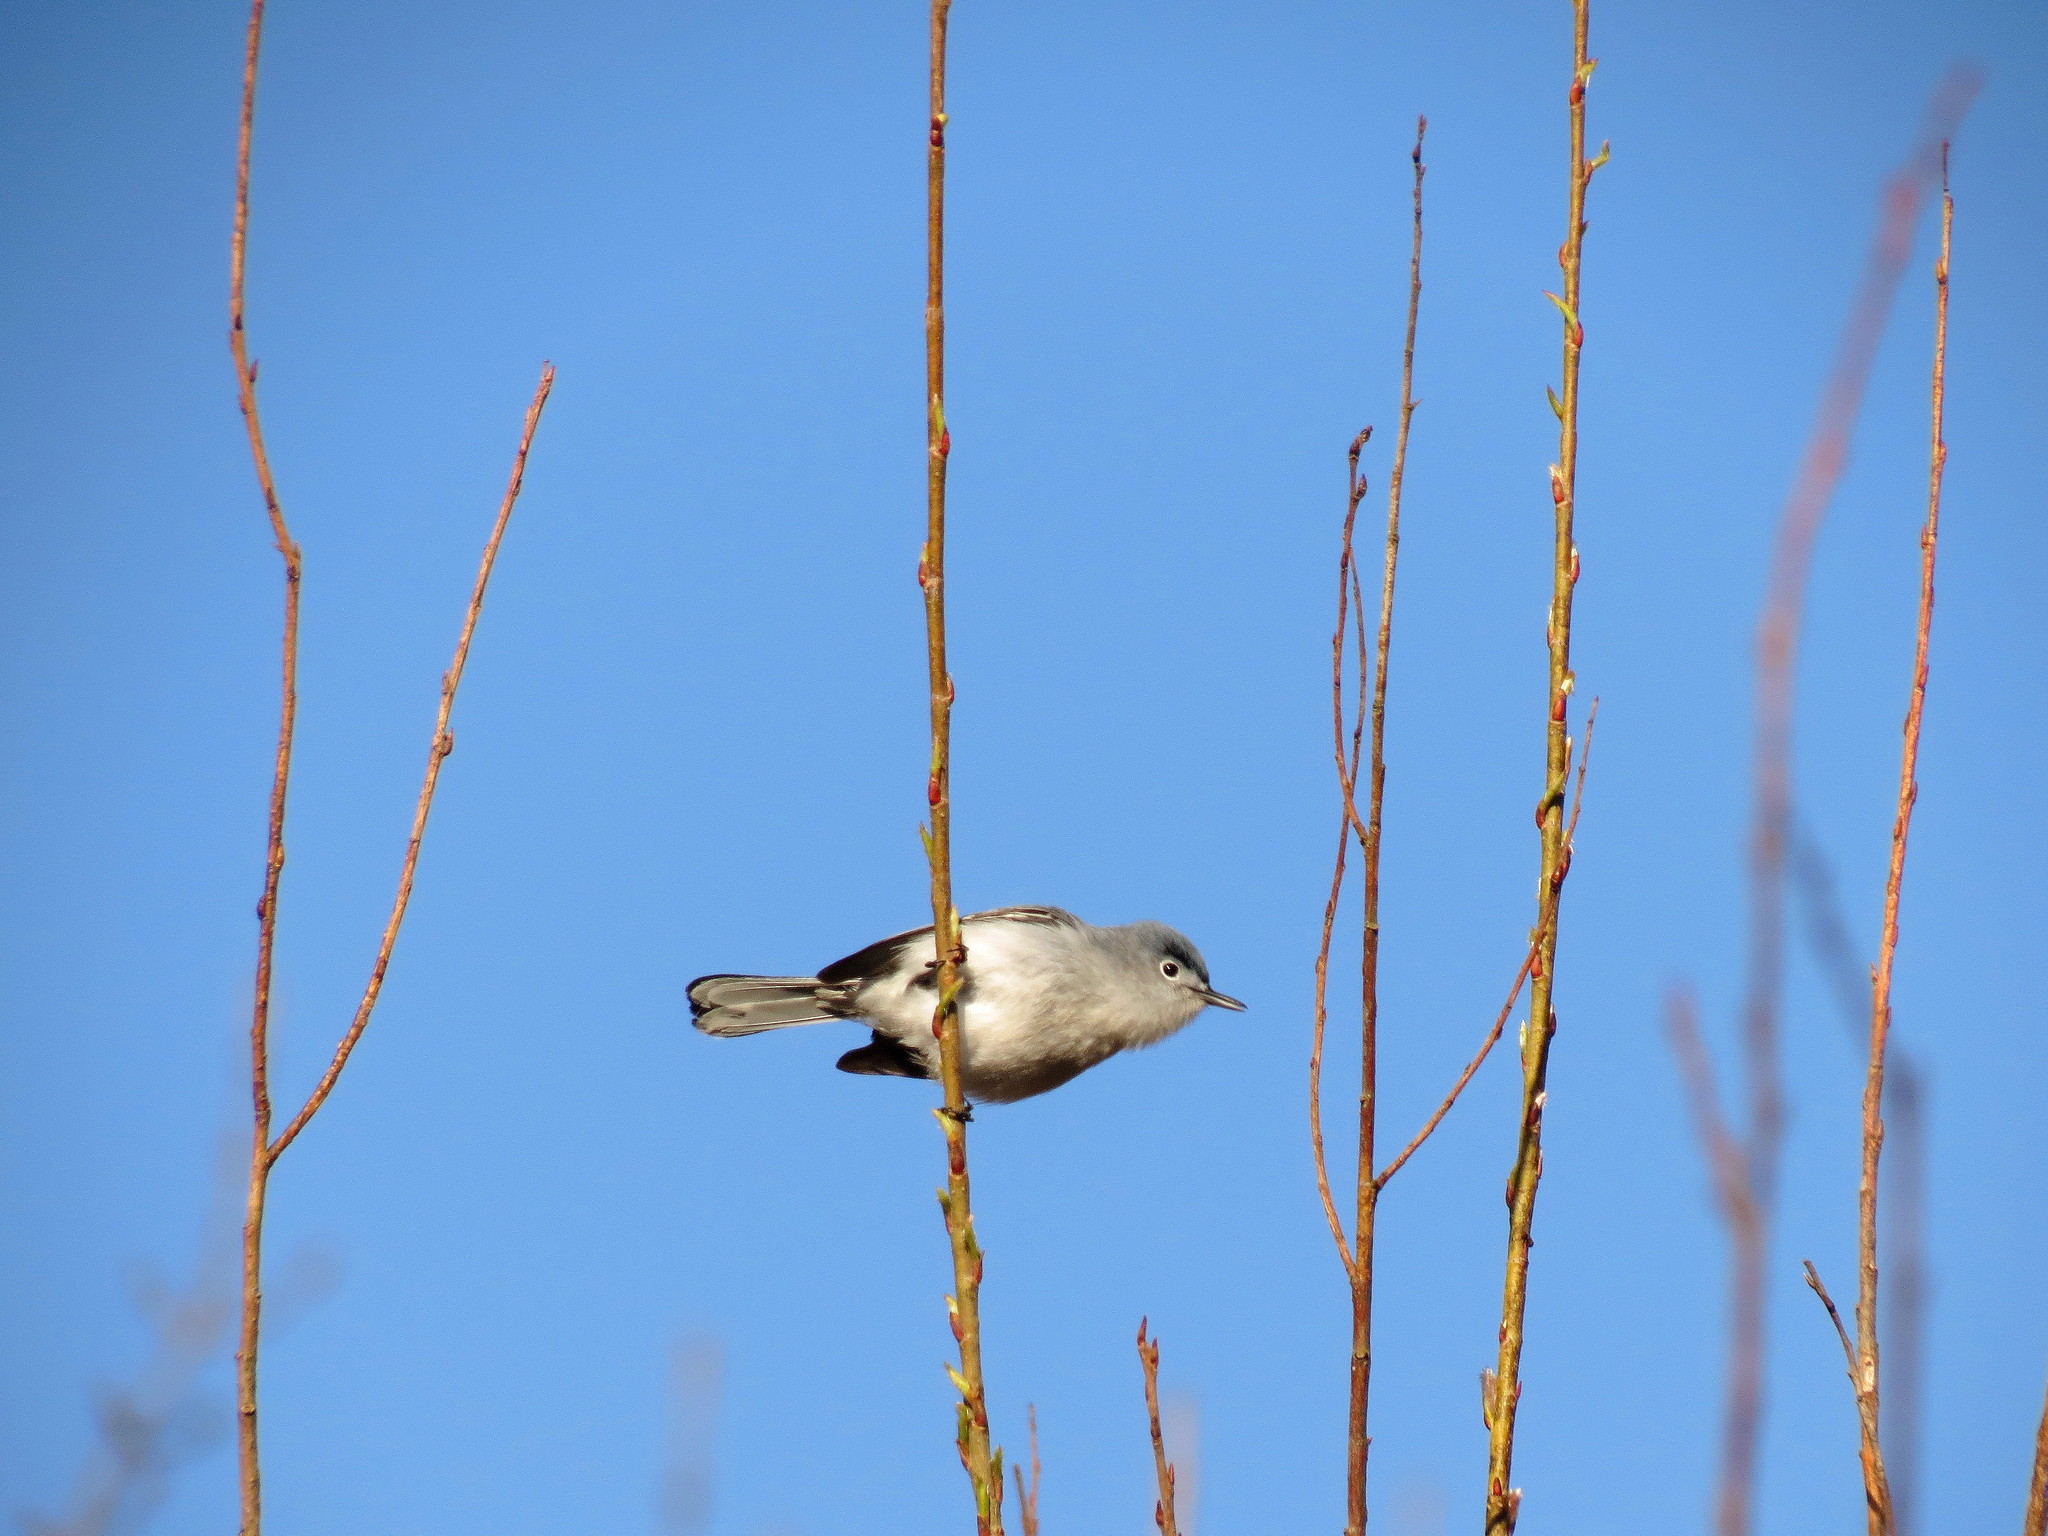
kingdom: Animalia
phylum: Chordata
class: Aves
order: Passeriformes
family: Polioptilidae
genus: Polioptila
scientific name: Polioptila caerulea
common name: Blue-gray gnatcatcher
